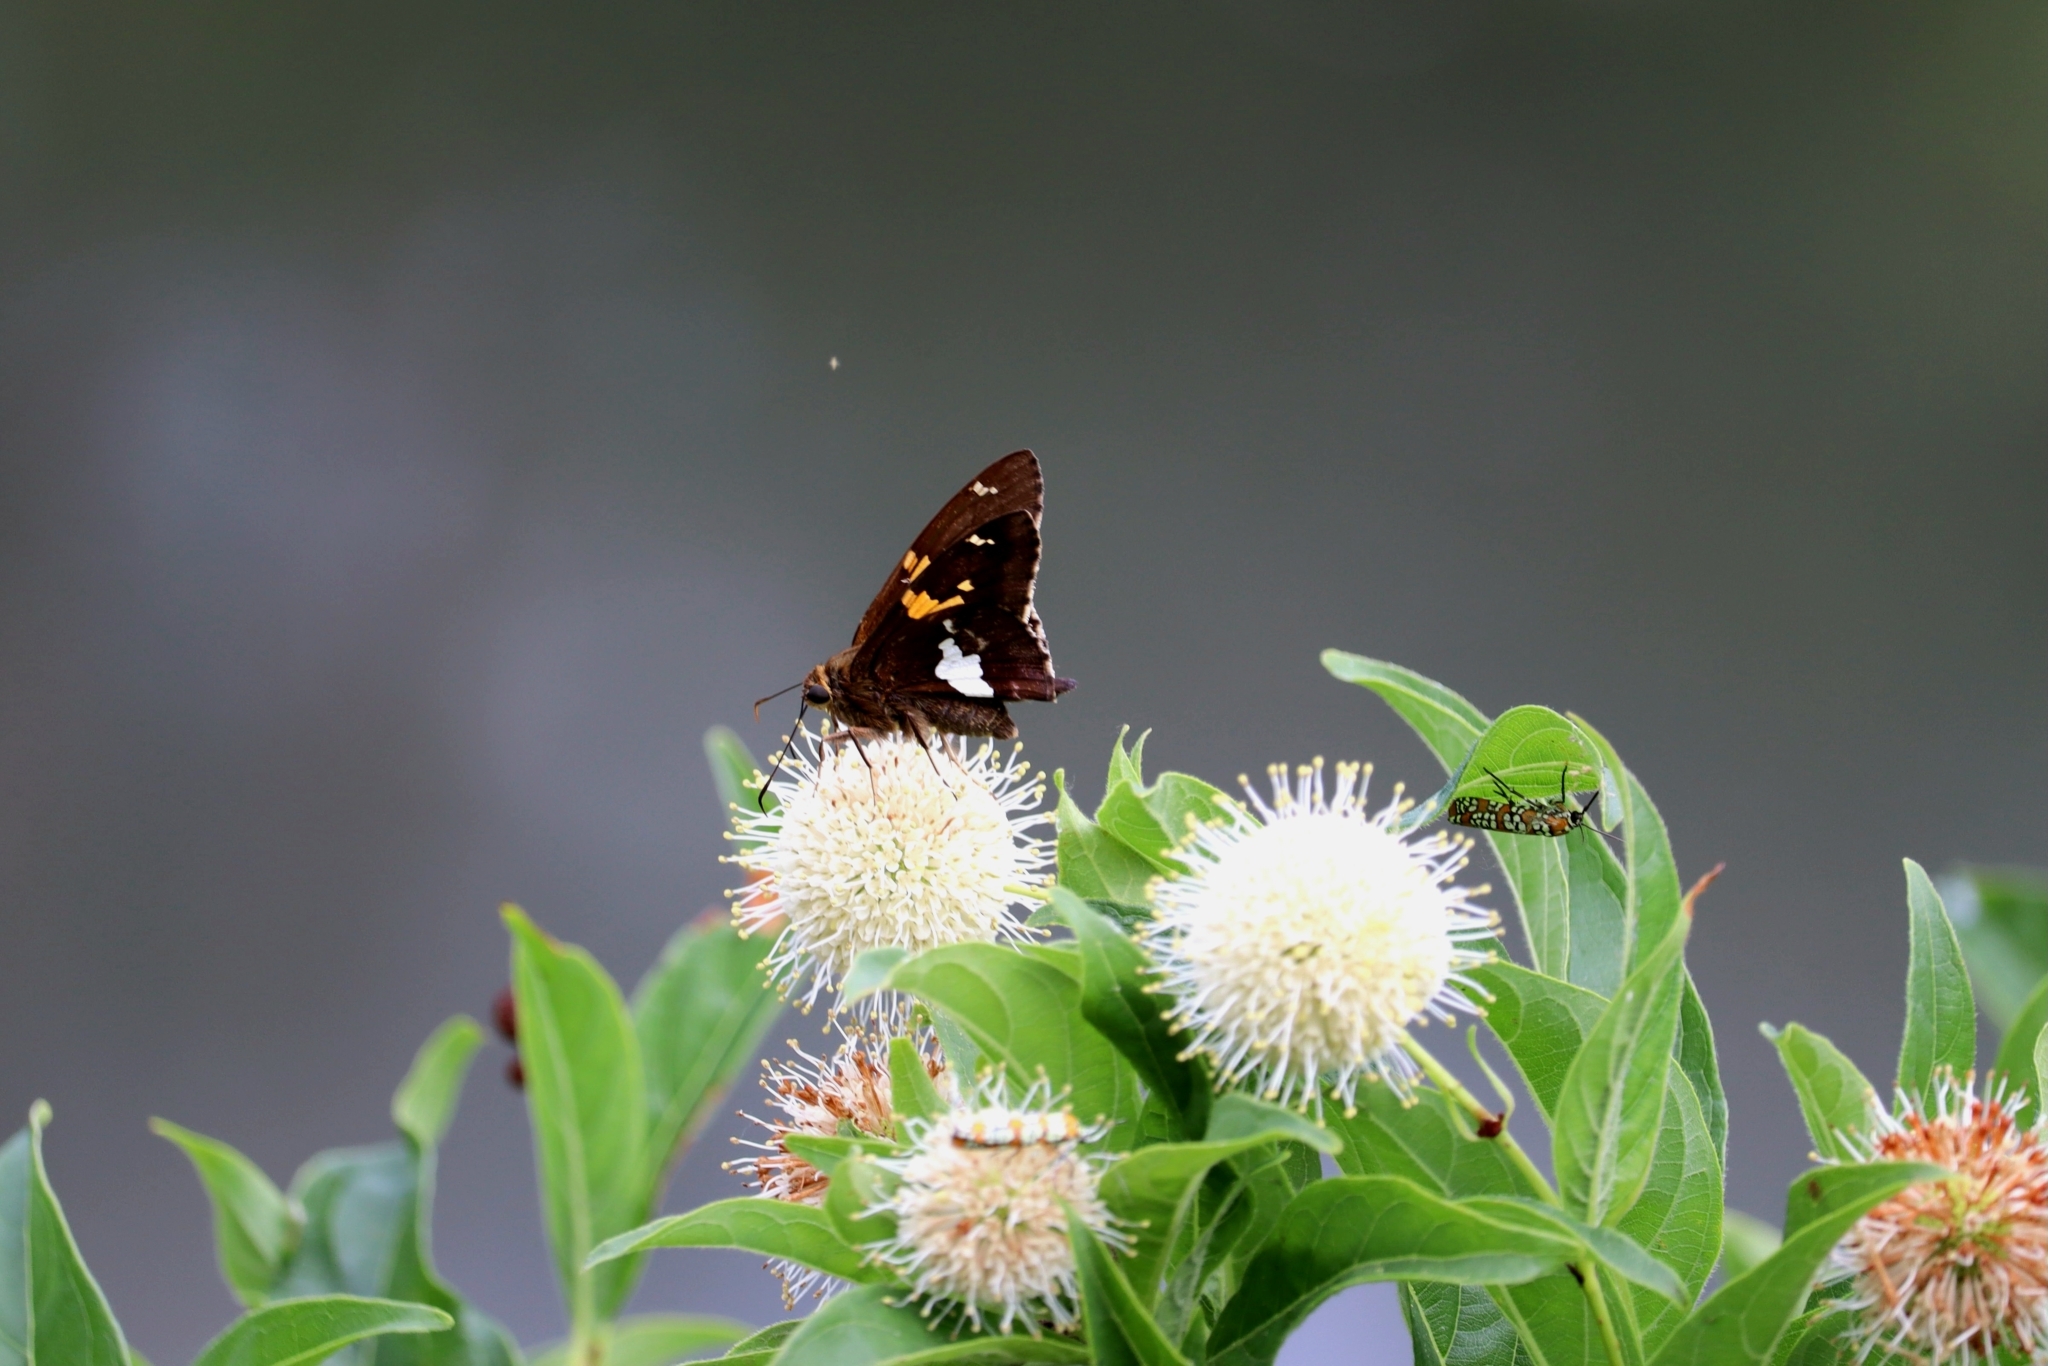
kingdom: Animalia
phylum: Arthropoda
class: Insecta
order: Lepidoptera
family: Hesperiidae
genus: Epargyreus
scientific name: Epargyreus clarus
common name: Silver-spotted skipper
